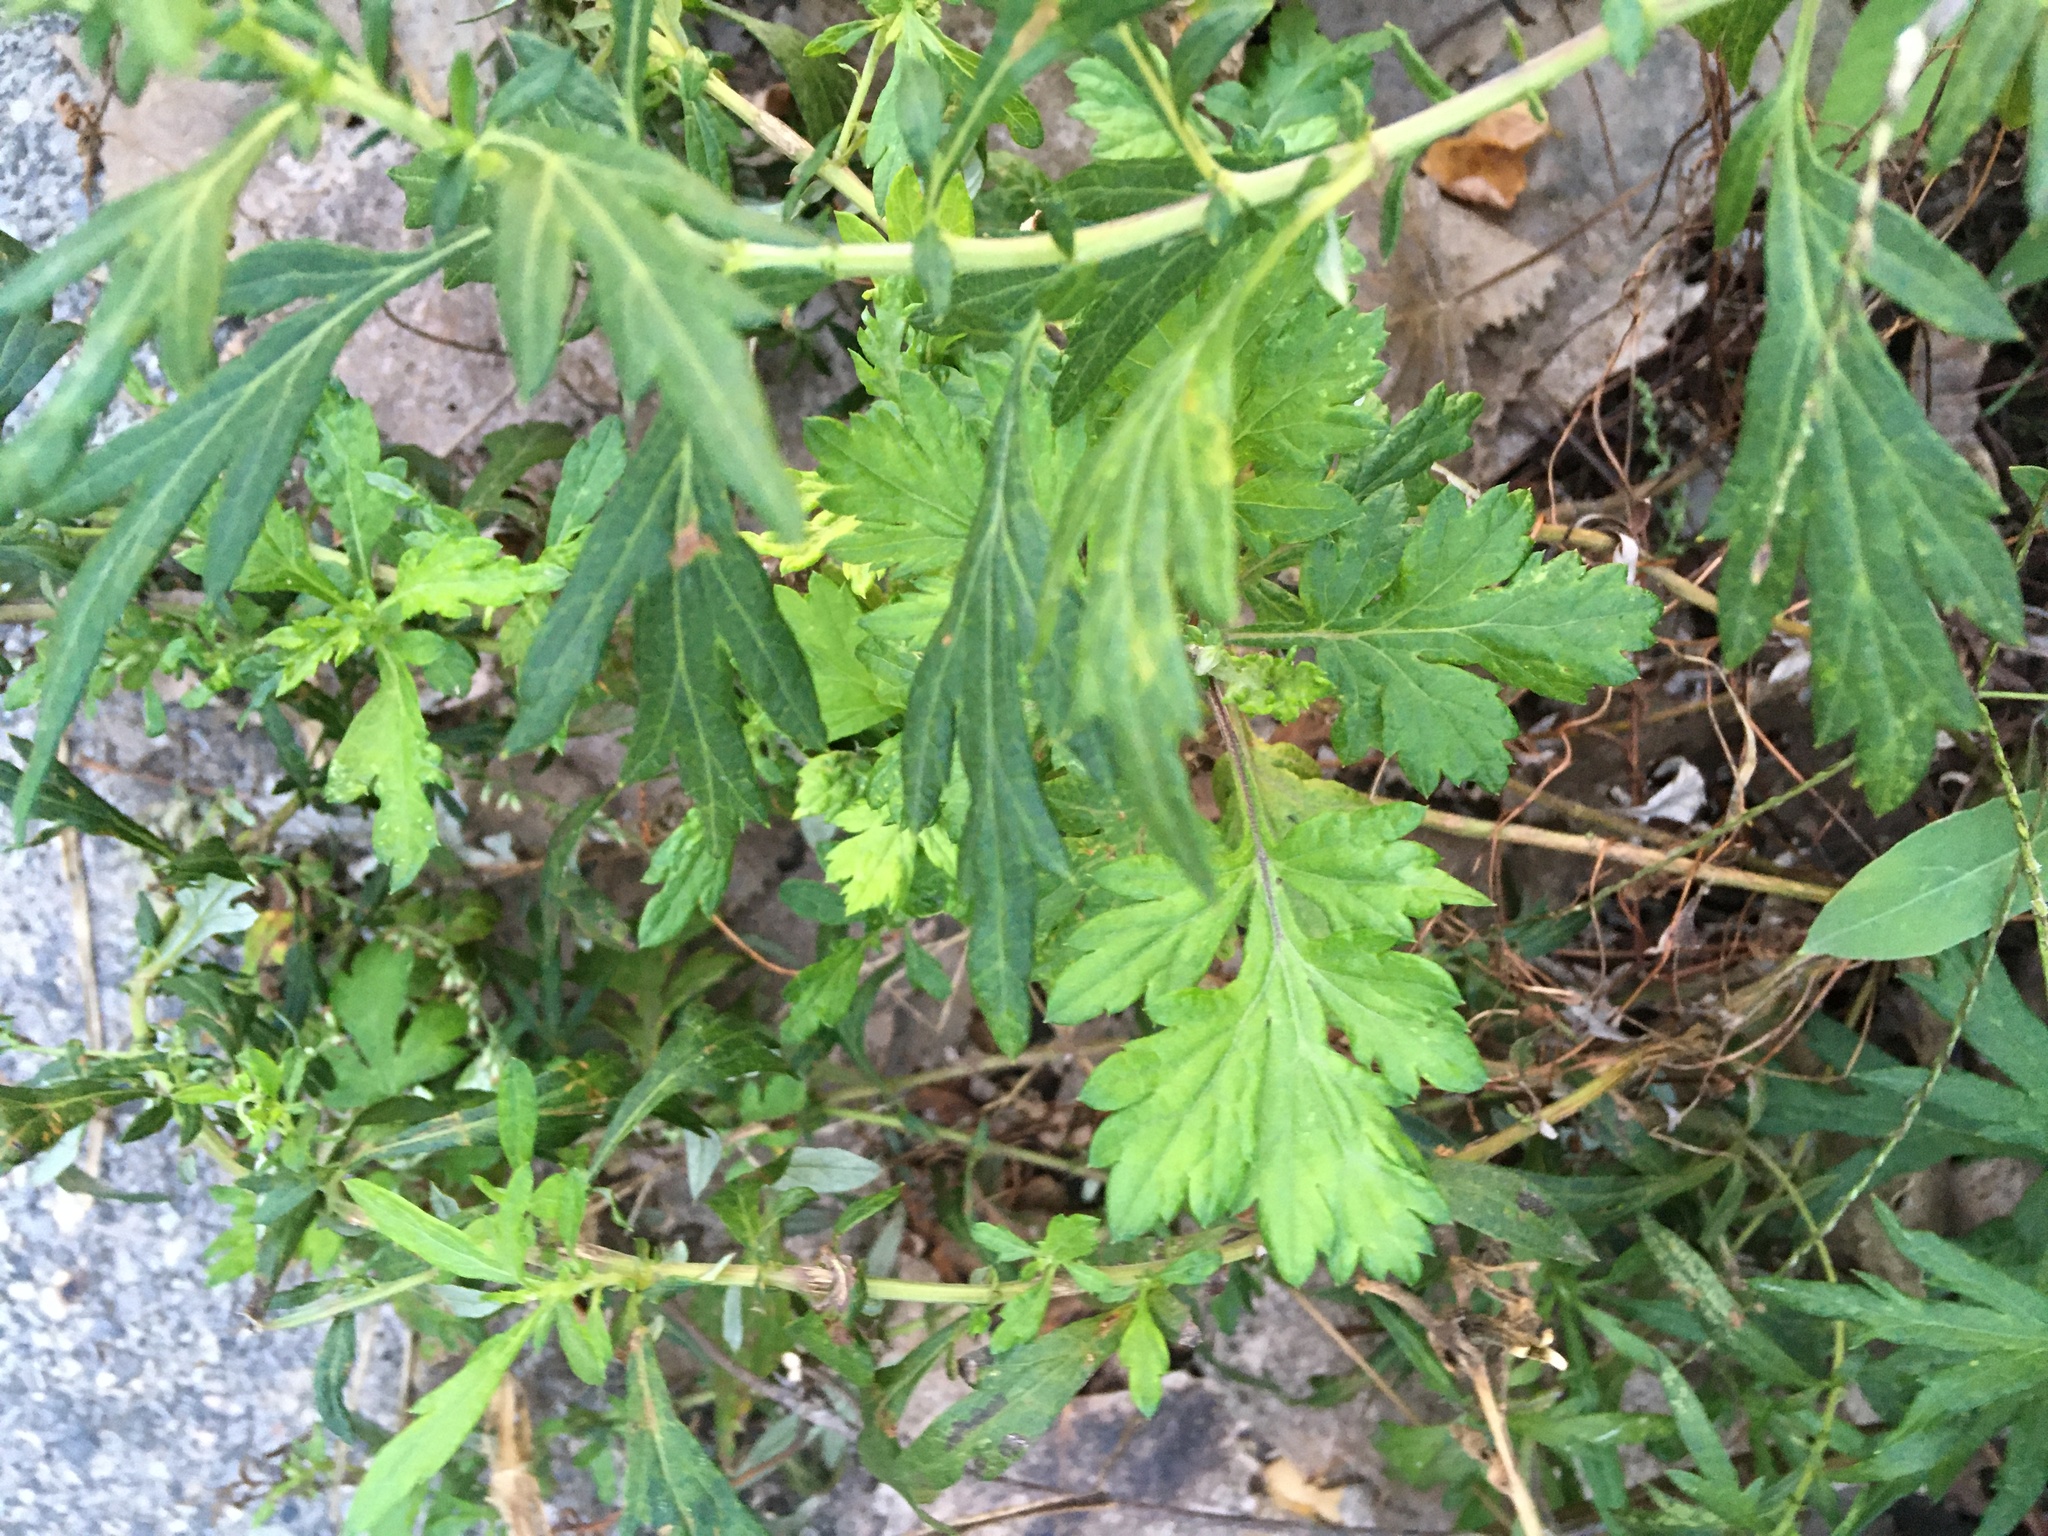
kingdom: Plantae
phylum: Tracheophyta
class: Magnoliopsida
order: Asterales
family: Asteraceae
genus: Artemisia
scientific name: Artemisia vulgaris
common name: Mugwort
